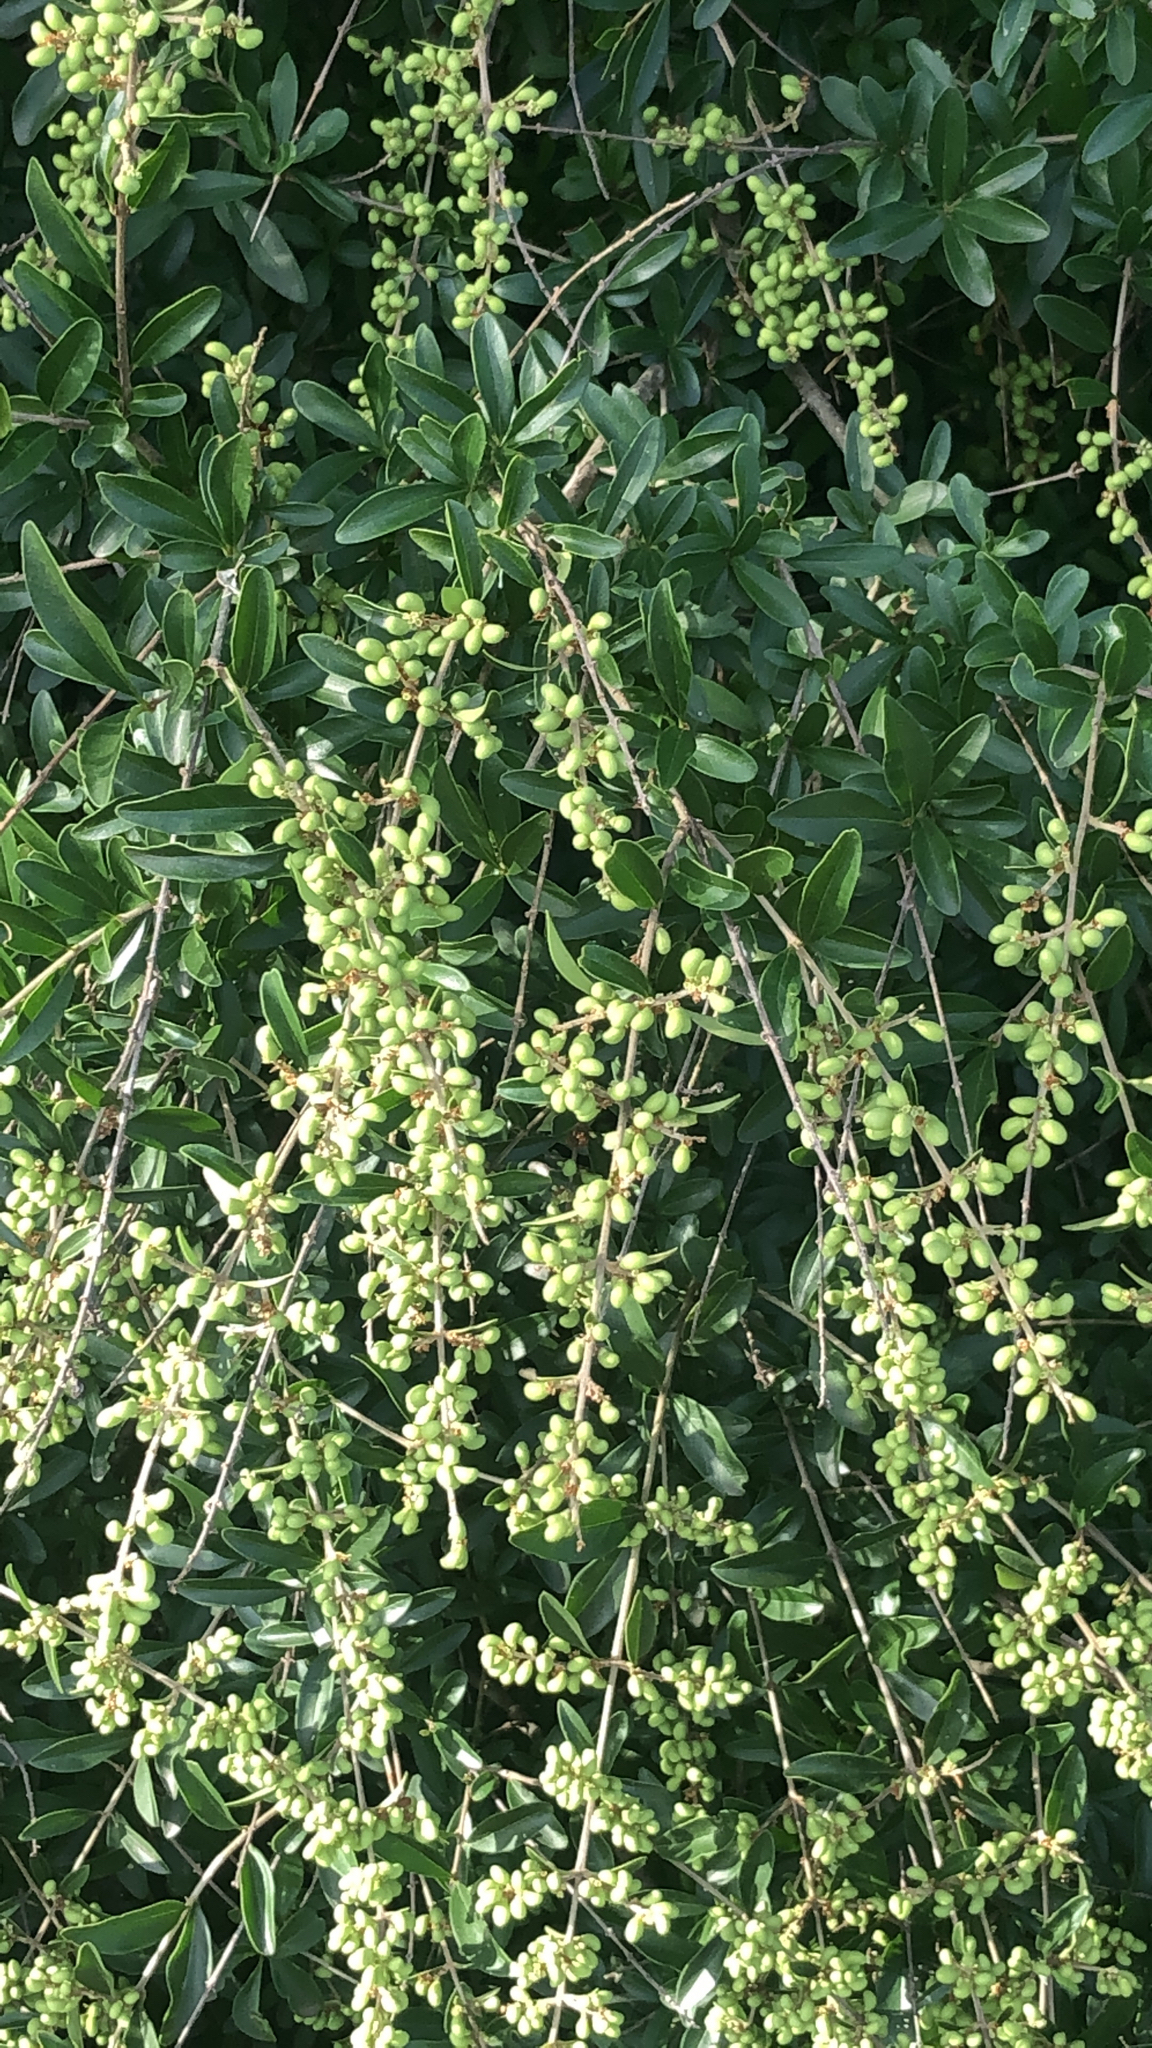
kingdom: Plantae
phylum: Tracheophyta
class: Magnoliopsida
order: Lamiales
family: Oleaceae
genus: Ligustrum
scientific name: Ligustrum quihoui
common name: Waxyleaf privet
